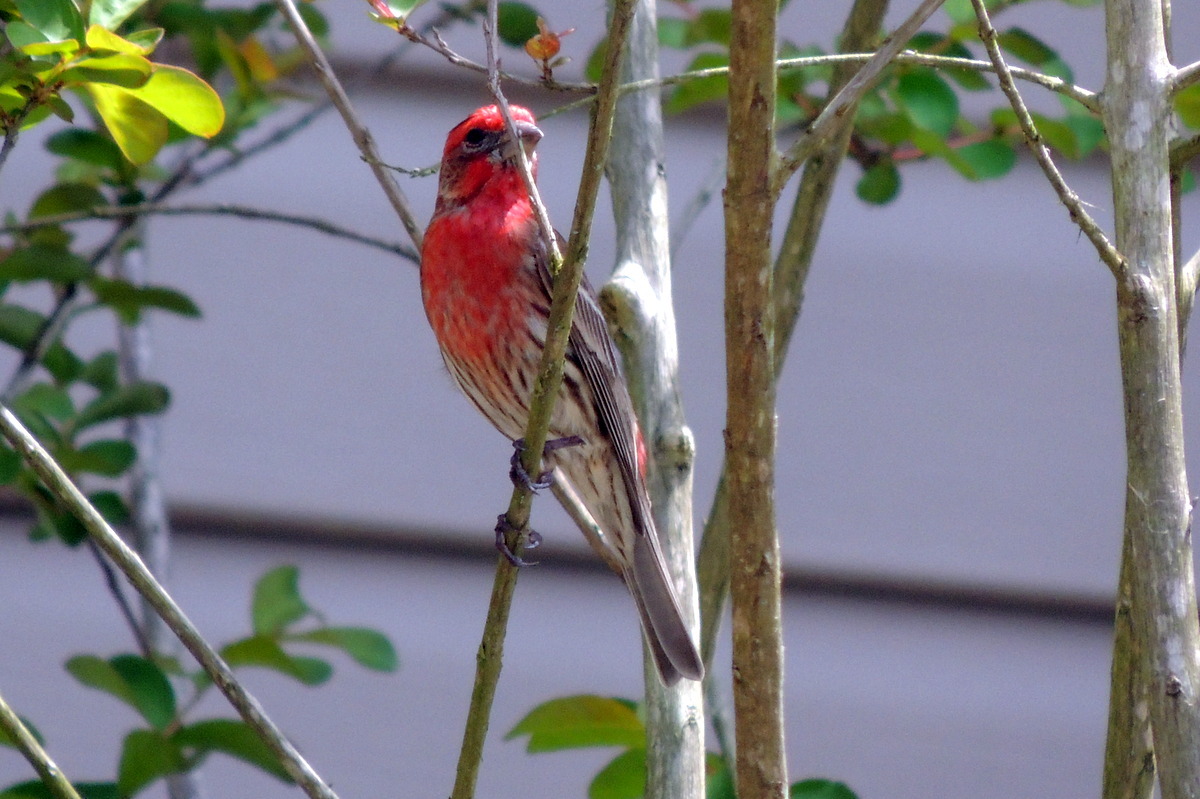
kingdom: Animalia
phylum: Chordata
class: Aves
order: Passeriformes
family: Fringillidae
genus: Haemorhous
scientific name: Haemorhous mexicanus
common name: House finch
